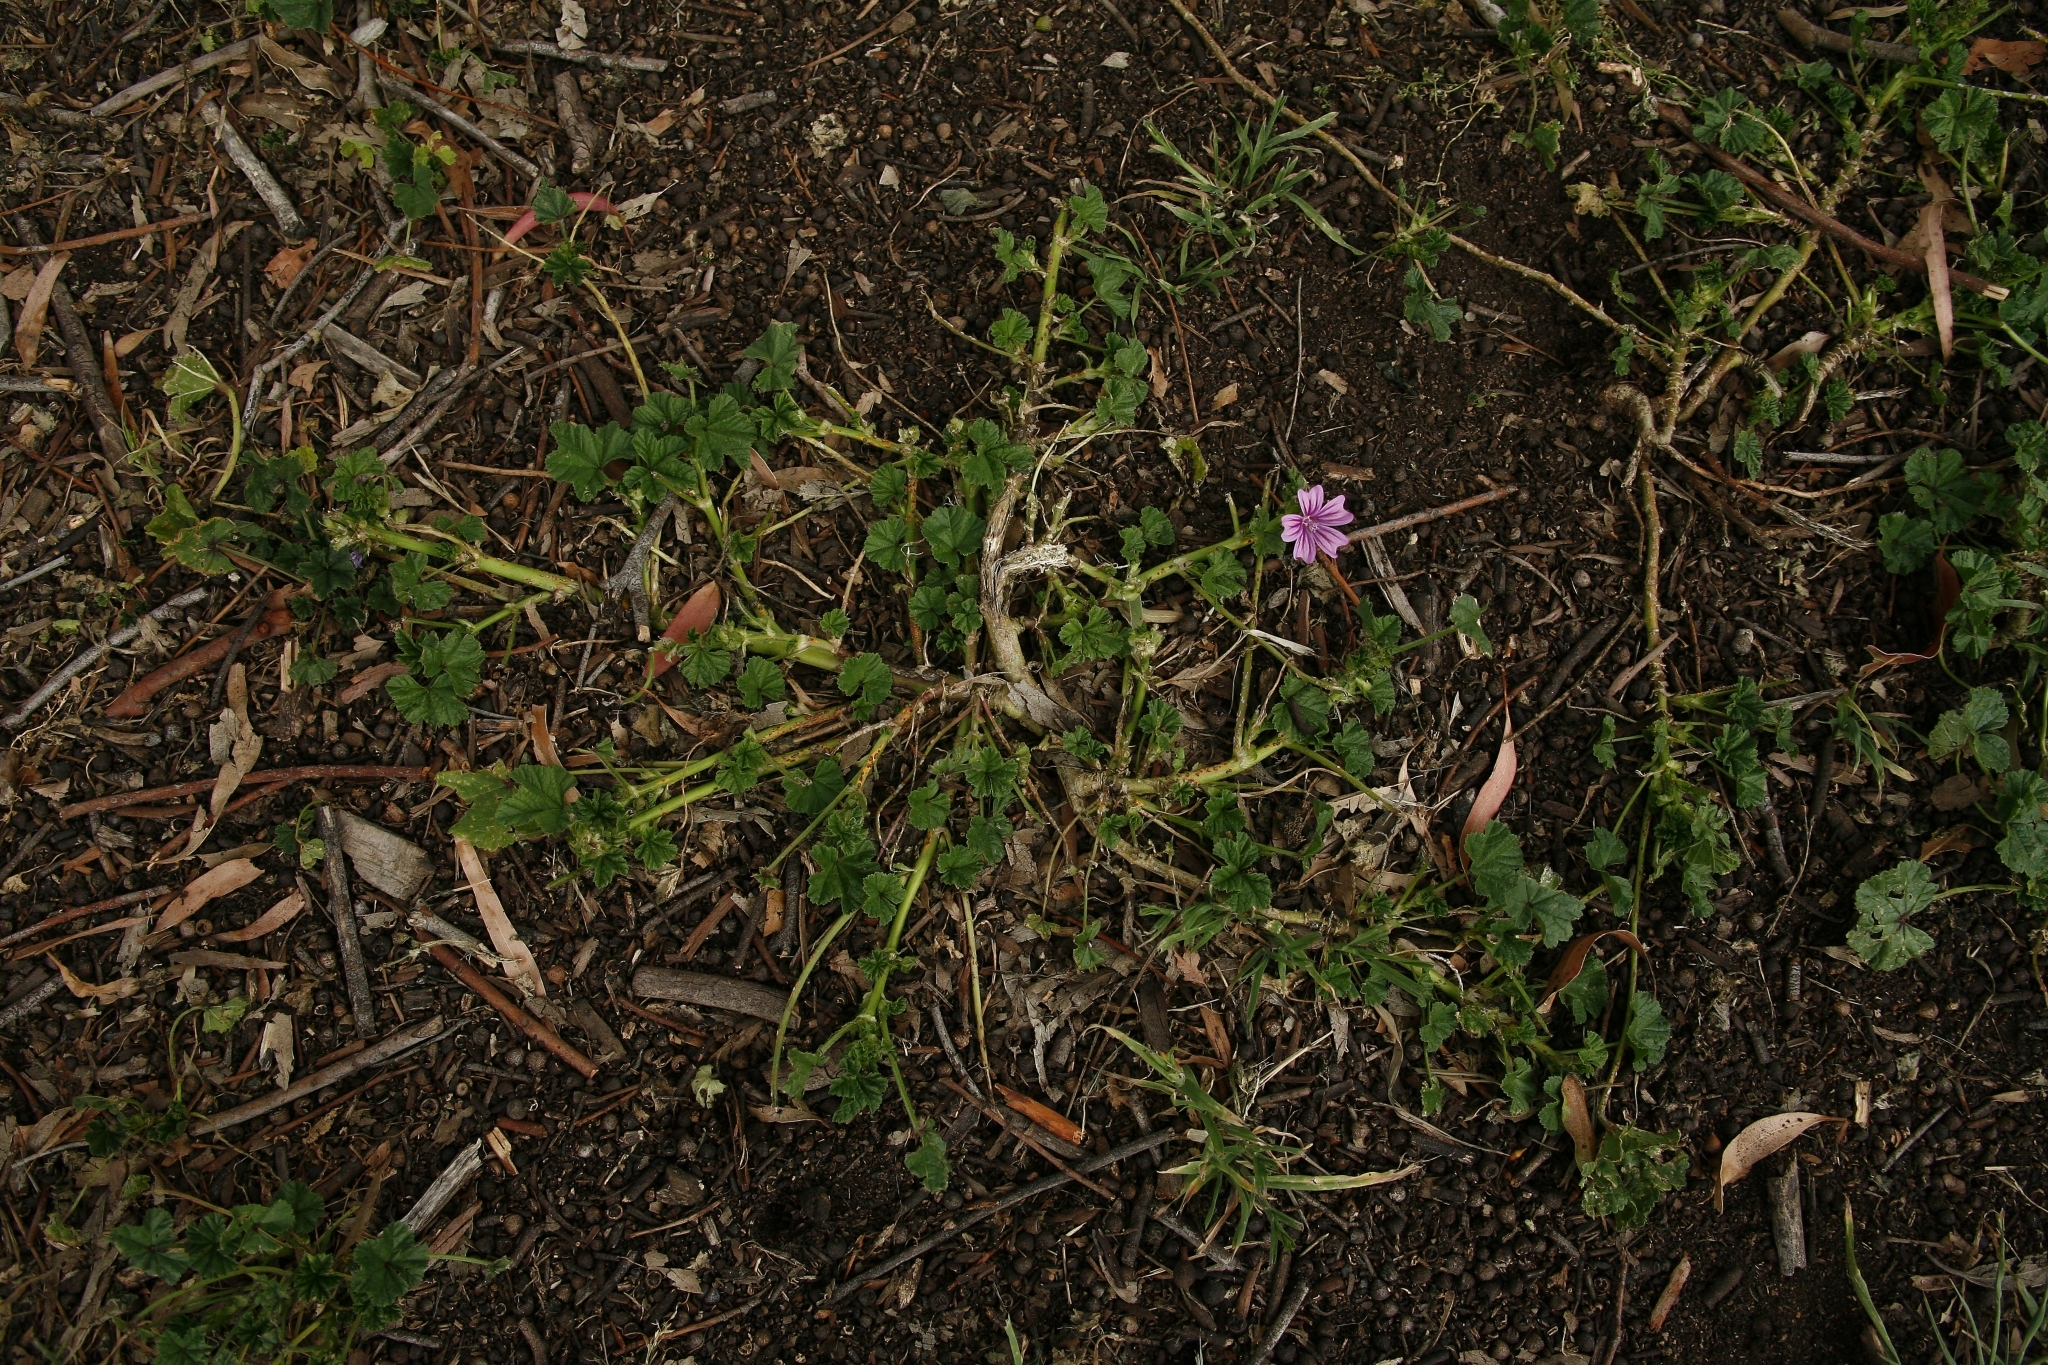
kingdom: Plantae
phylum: Tracheophyta
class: Magnoliopsida
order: Malvales
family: Malvaceae
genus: Malva
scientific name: Malva sylvestris
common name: Common mallow
